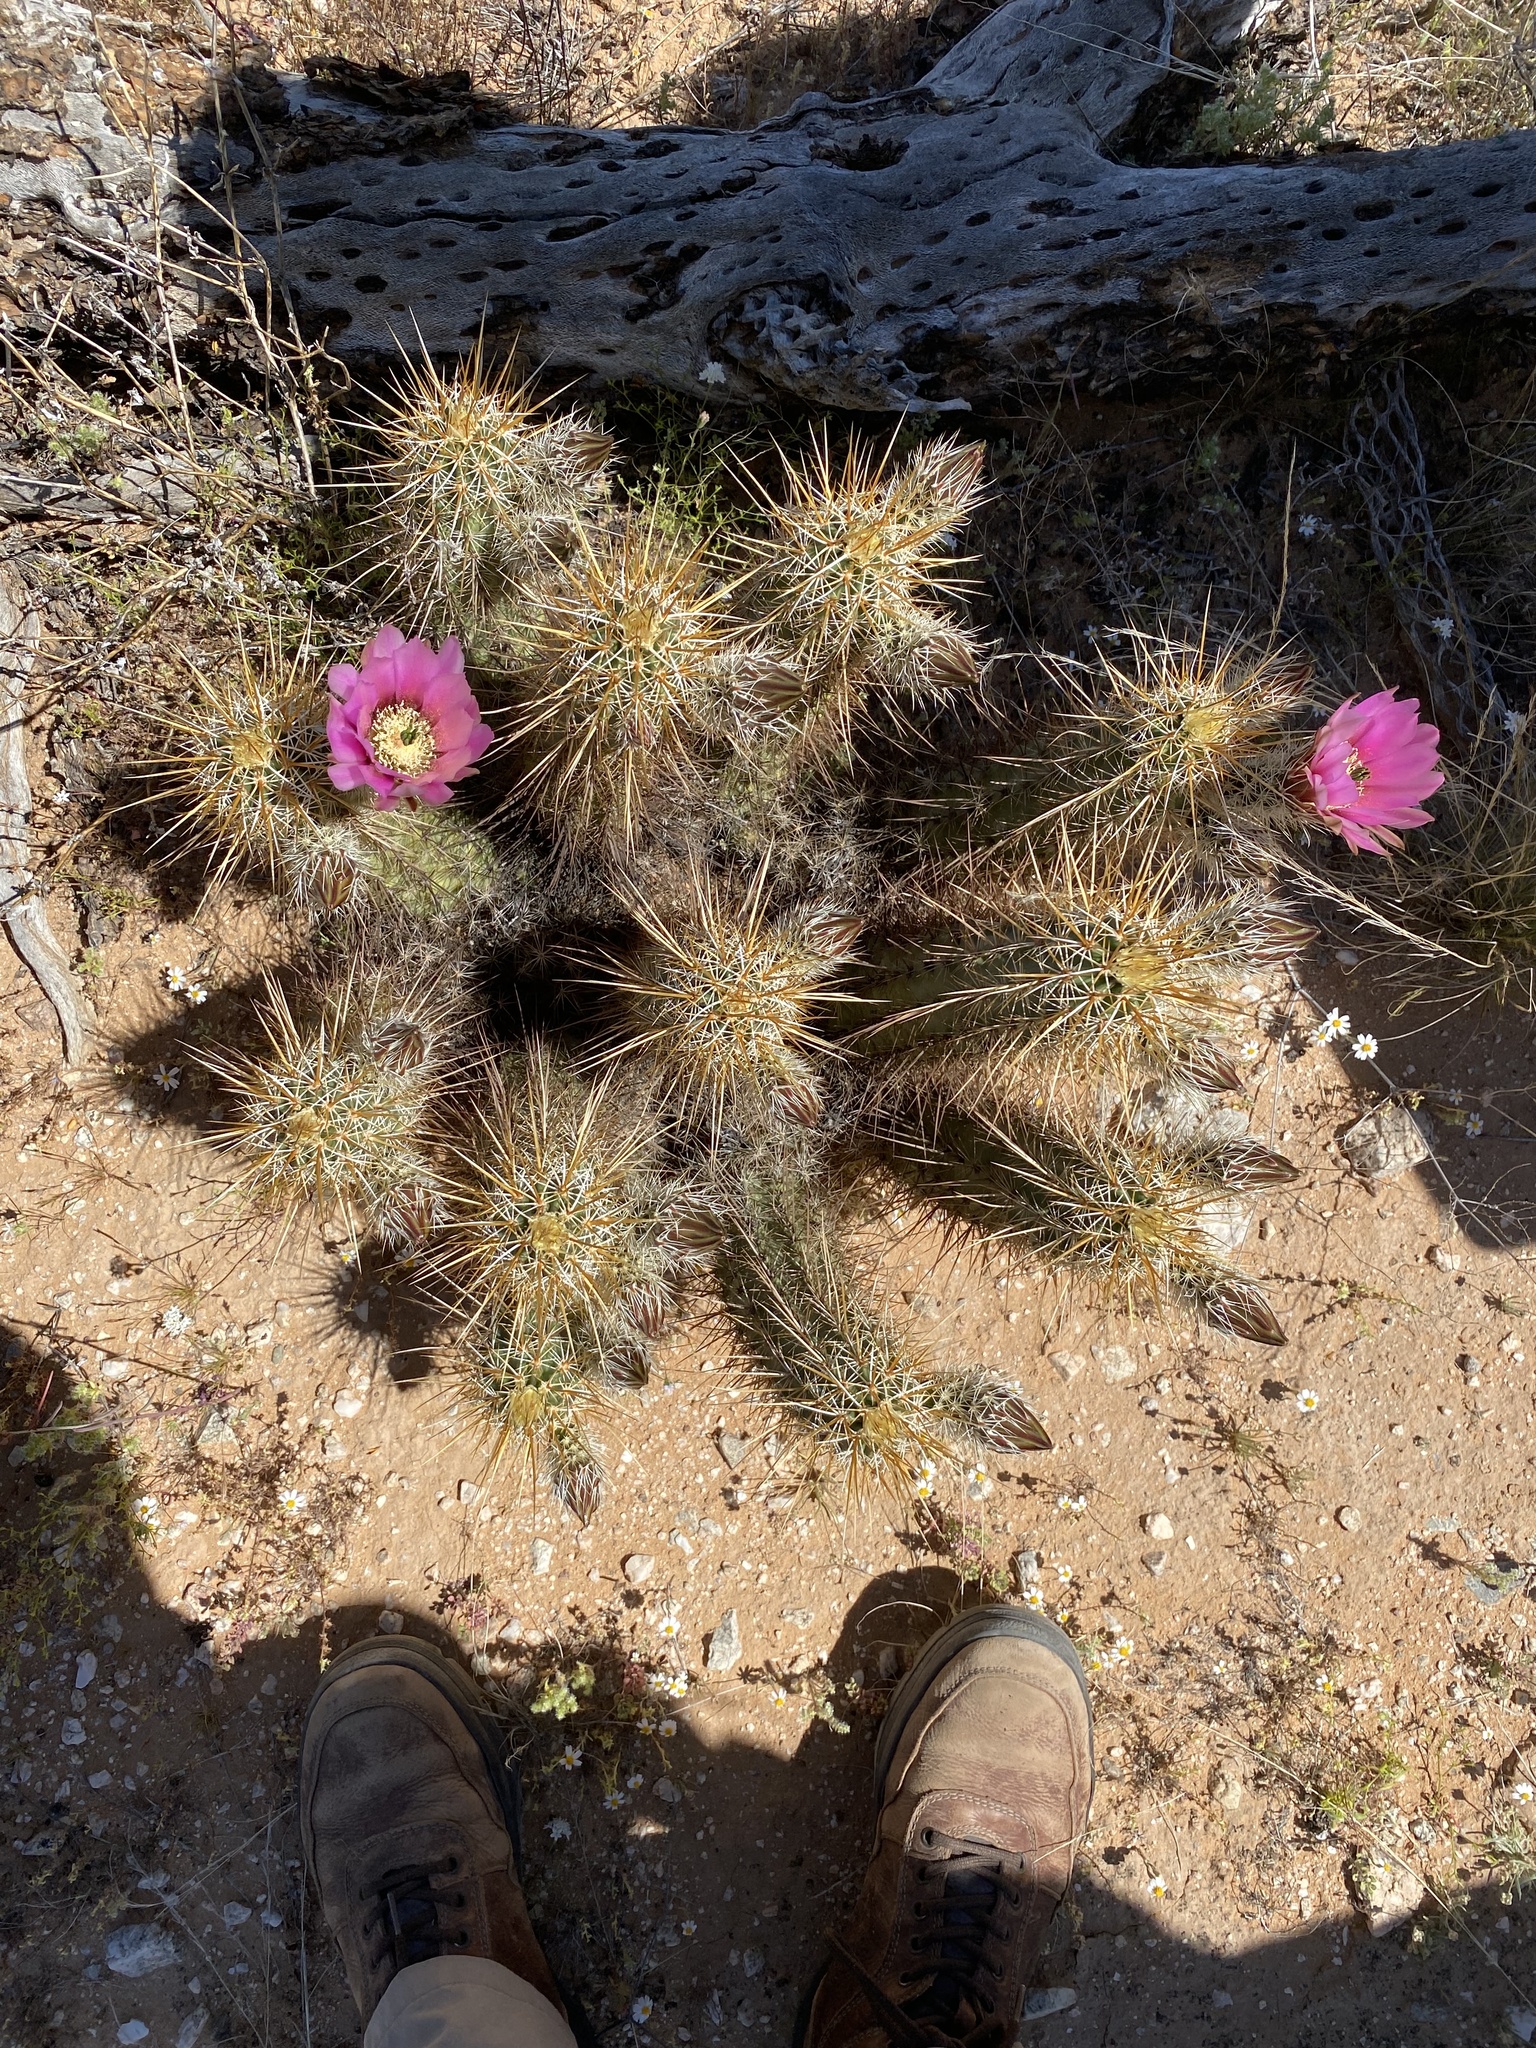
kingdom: Plantae
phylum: Tracheophyta
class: Magnoliopsida
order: Caryophyllales
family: Cactaceae
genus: Echinocereus
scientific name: Echinocereus engelmannii
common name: Engelmann's hedgehog cactus
